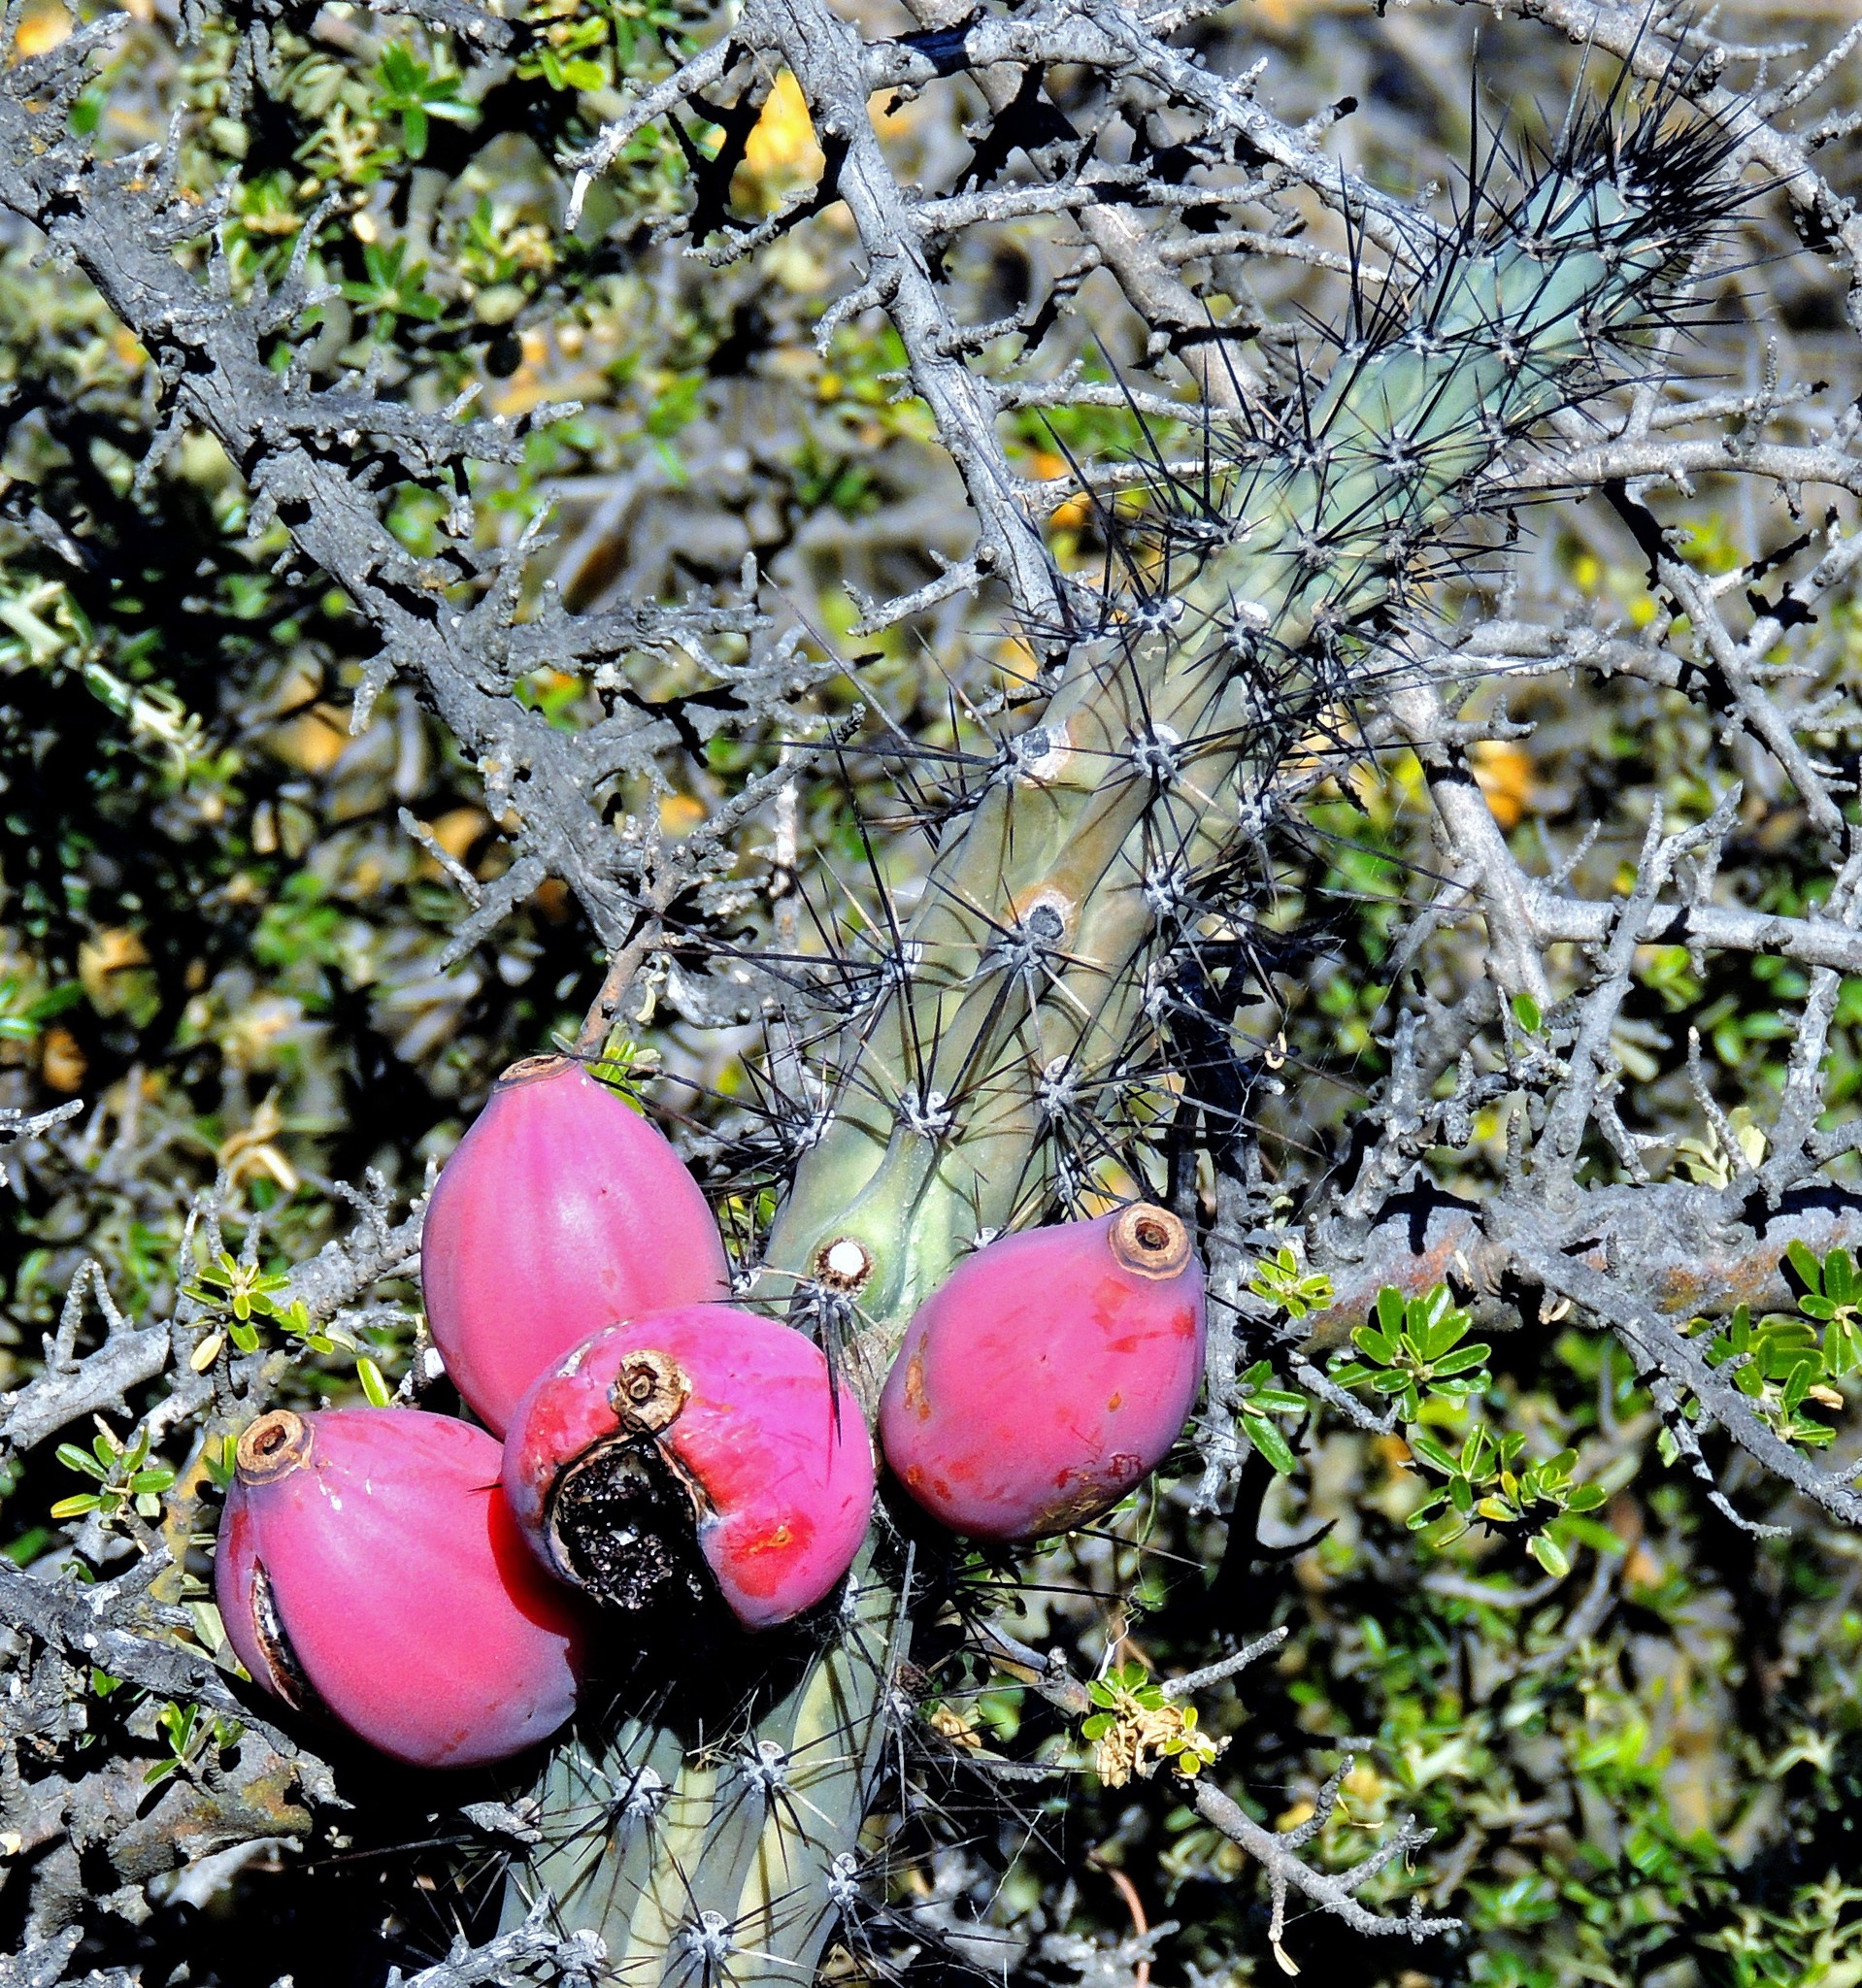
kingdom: Plantae
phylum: Tracheophyta
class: Magnoliopsida
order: Caryophyllales
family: Cactaceae
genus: Cereus
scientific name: Cereus aethiops
